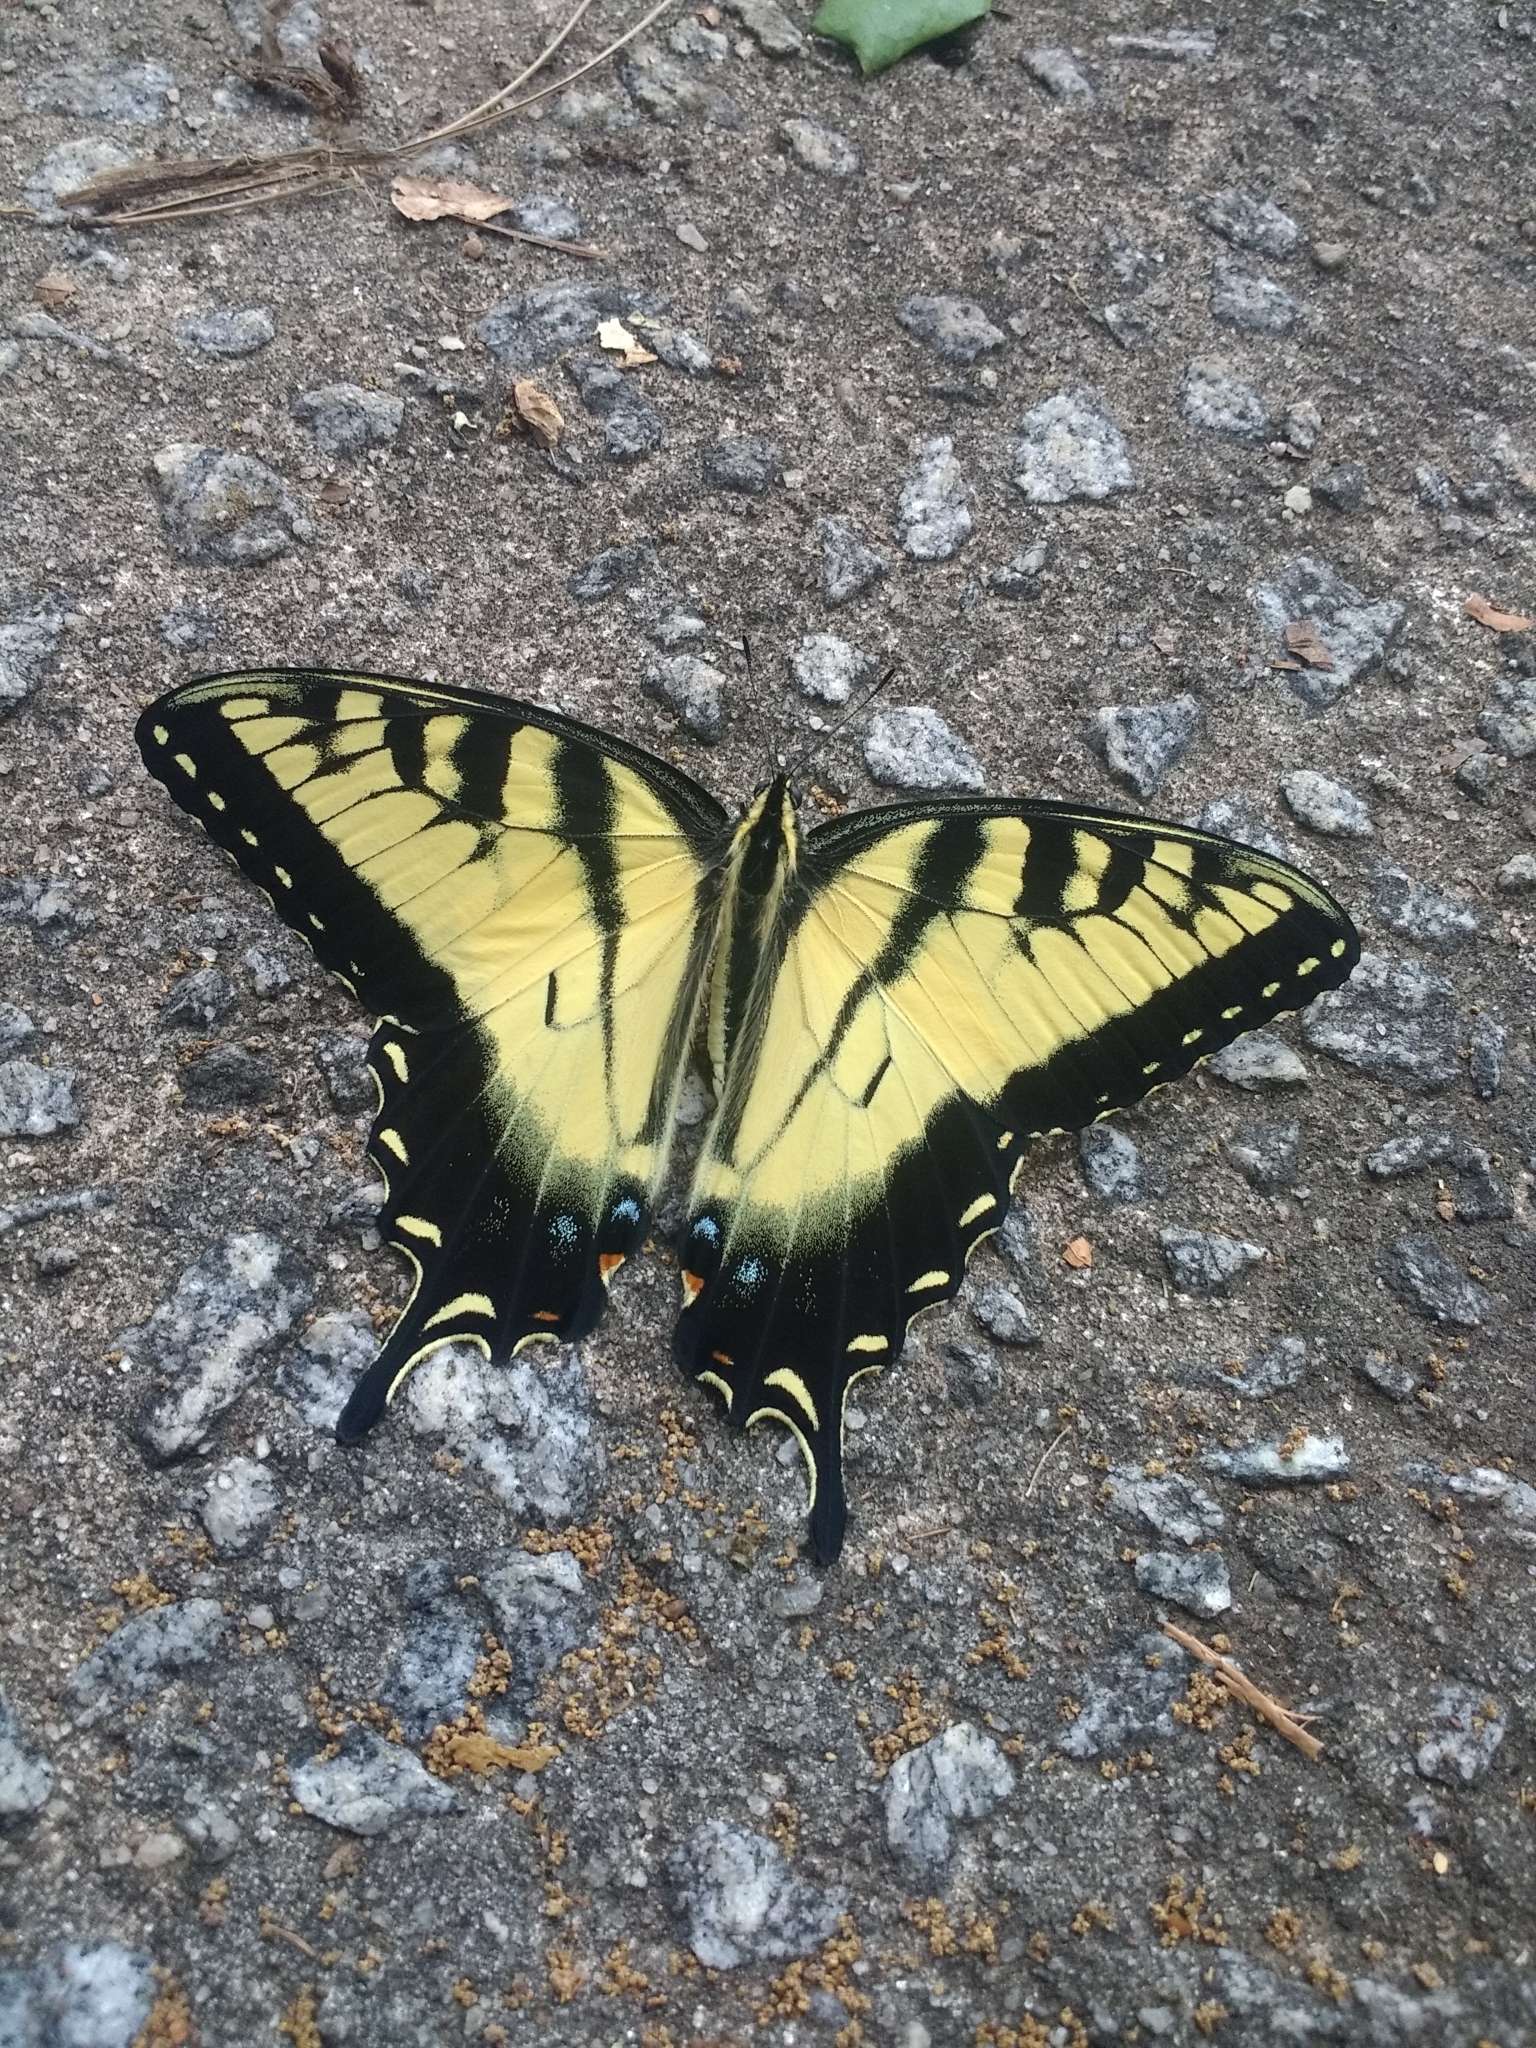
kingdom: Animalia
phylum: Arthropoda
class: Insecta
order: Lepidoptera
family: Papilionidae
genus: Papilio
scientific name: Papilio glaucus
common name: Tiger swallowtail
